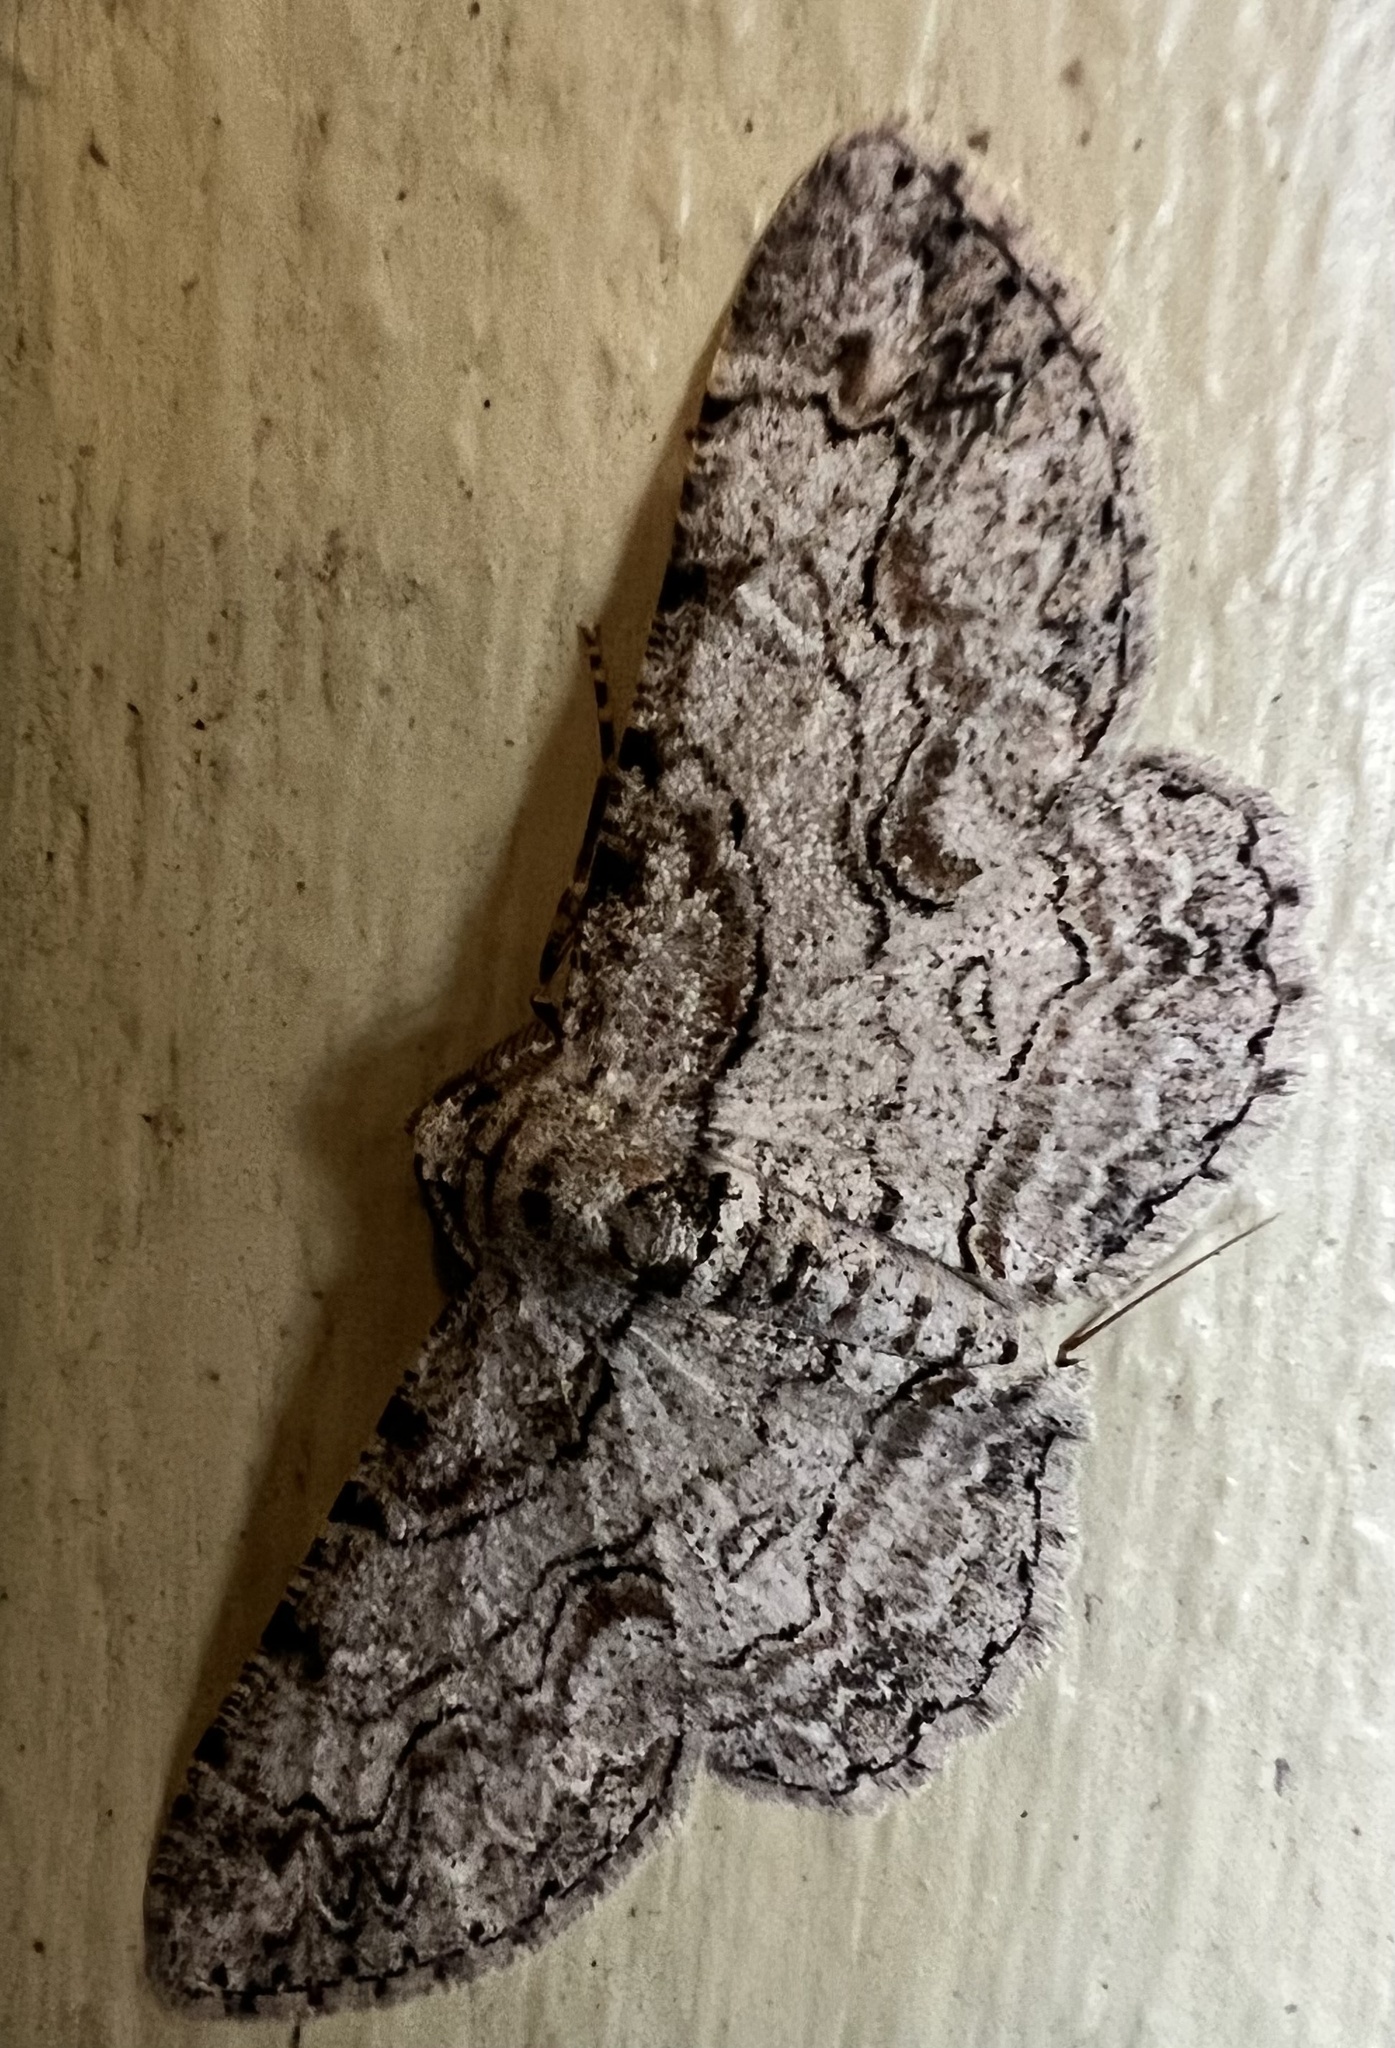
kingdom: Animalia
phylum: Arthropoda
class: Insecta
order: Lepidoptera
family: Geometridae
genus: Iridopsis
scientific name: Iridopsis defectaria
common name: Brown-shaded gray
